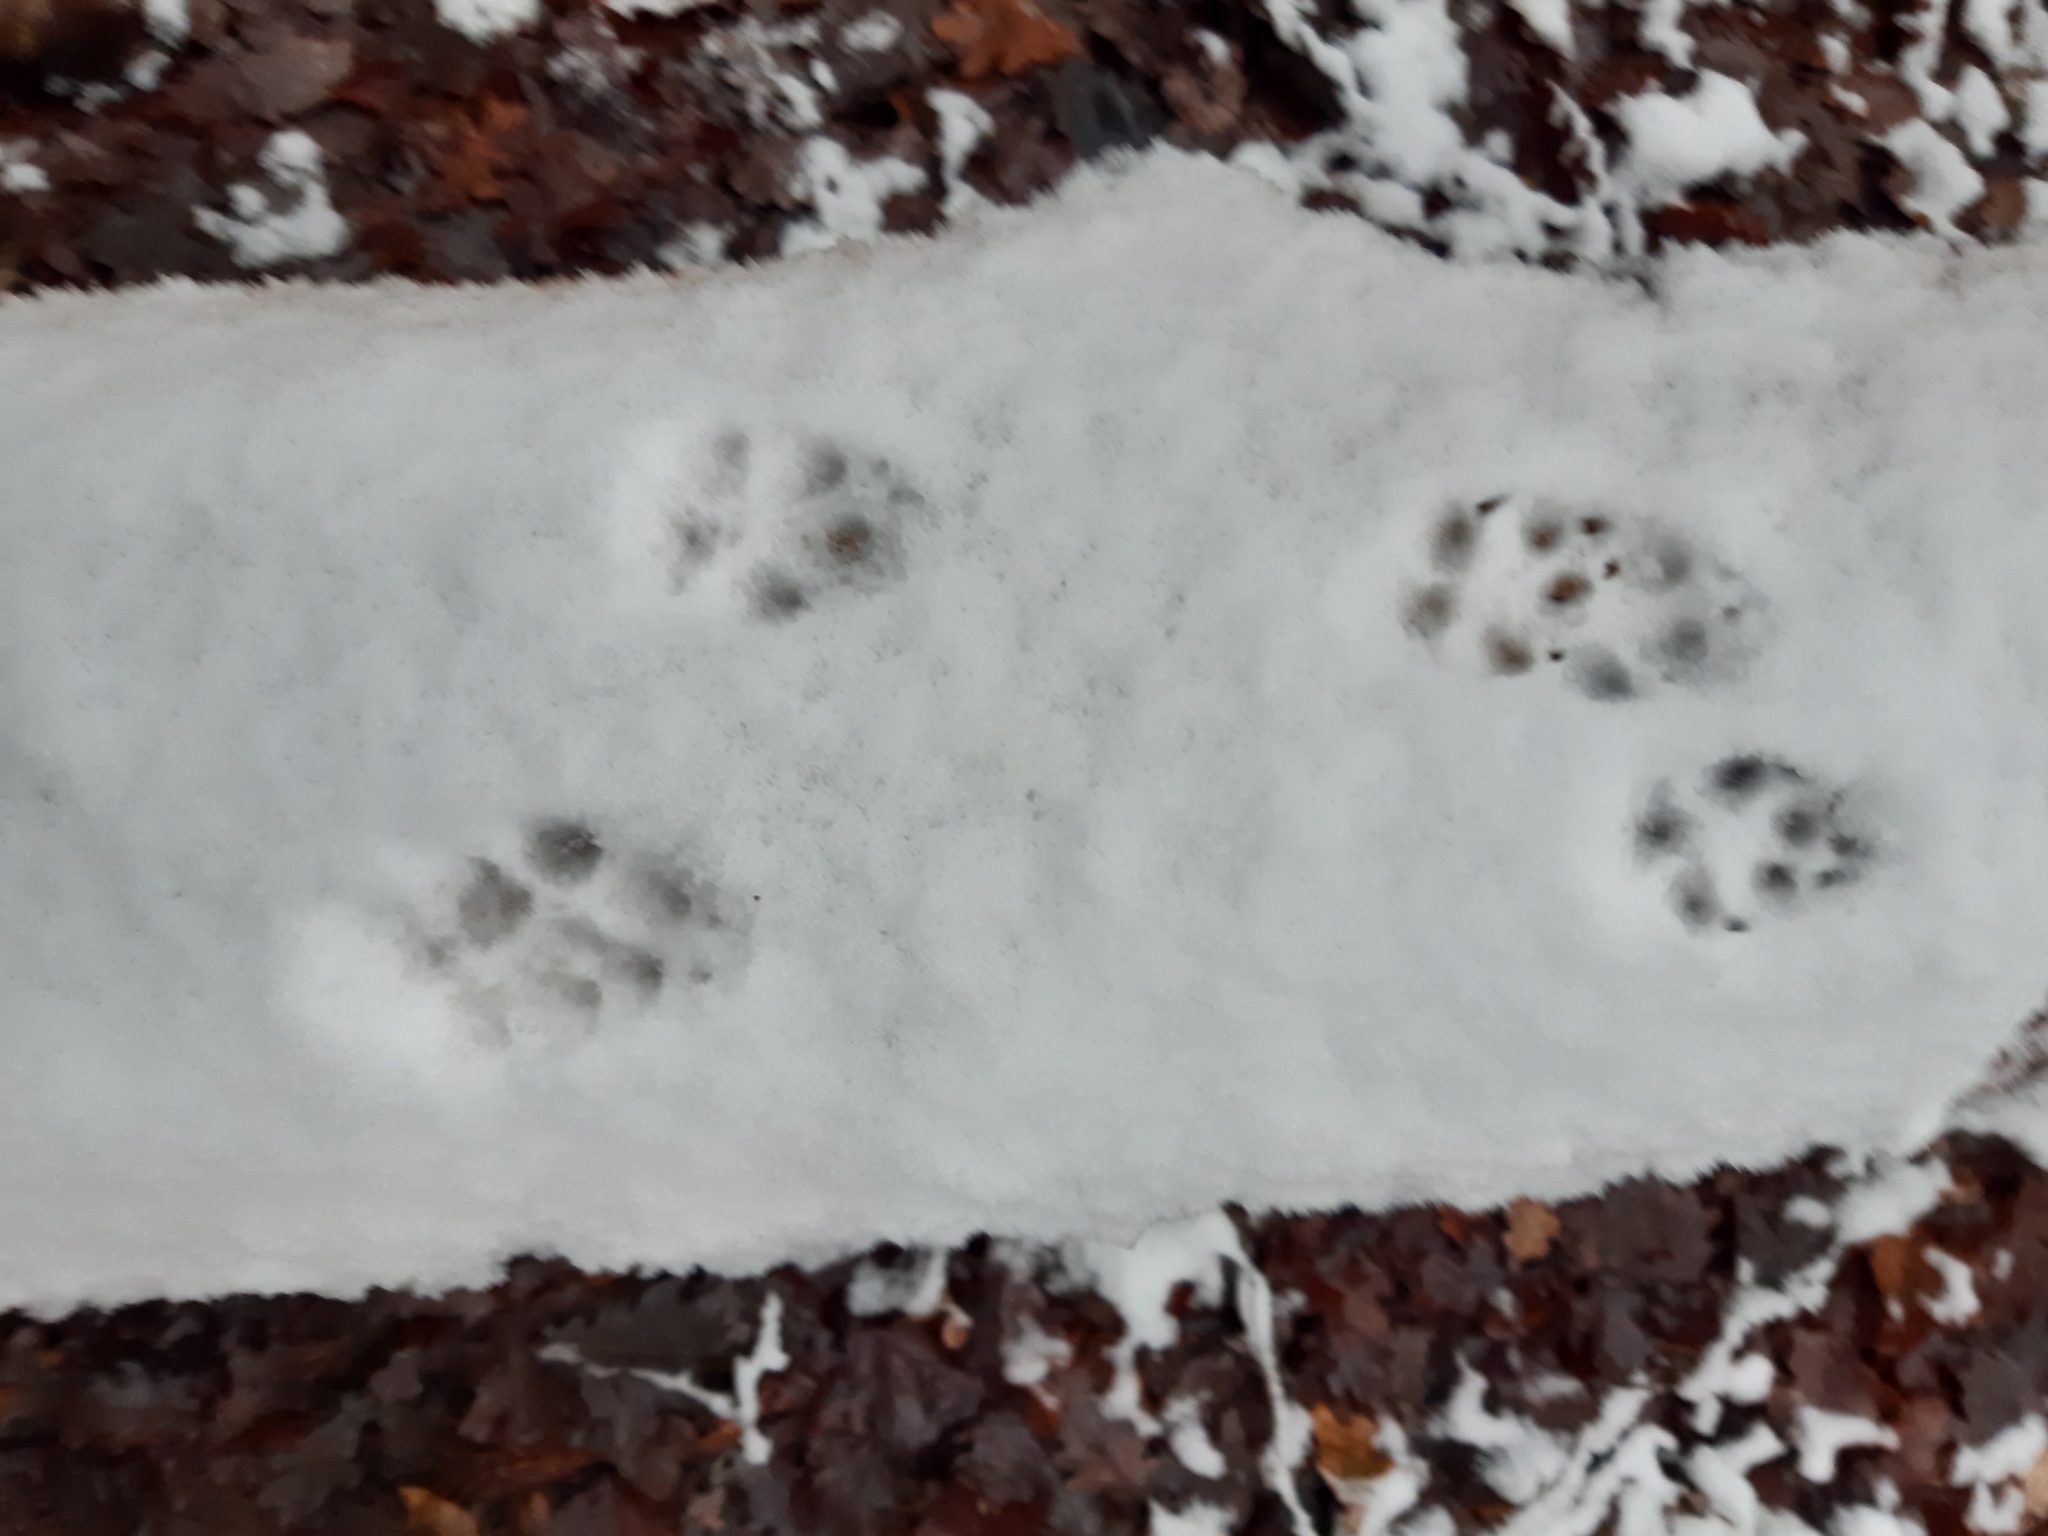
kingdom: Animalia
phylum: Chordata
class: Mammalia
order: Carnivora
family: Canidae
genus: Vulpes
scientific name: Vulpes vulpes
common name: Red fox
